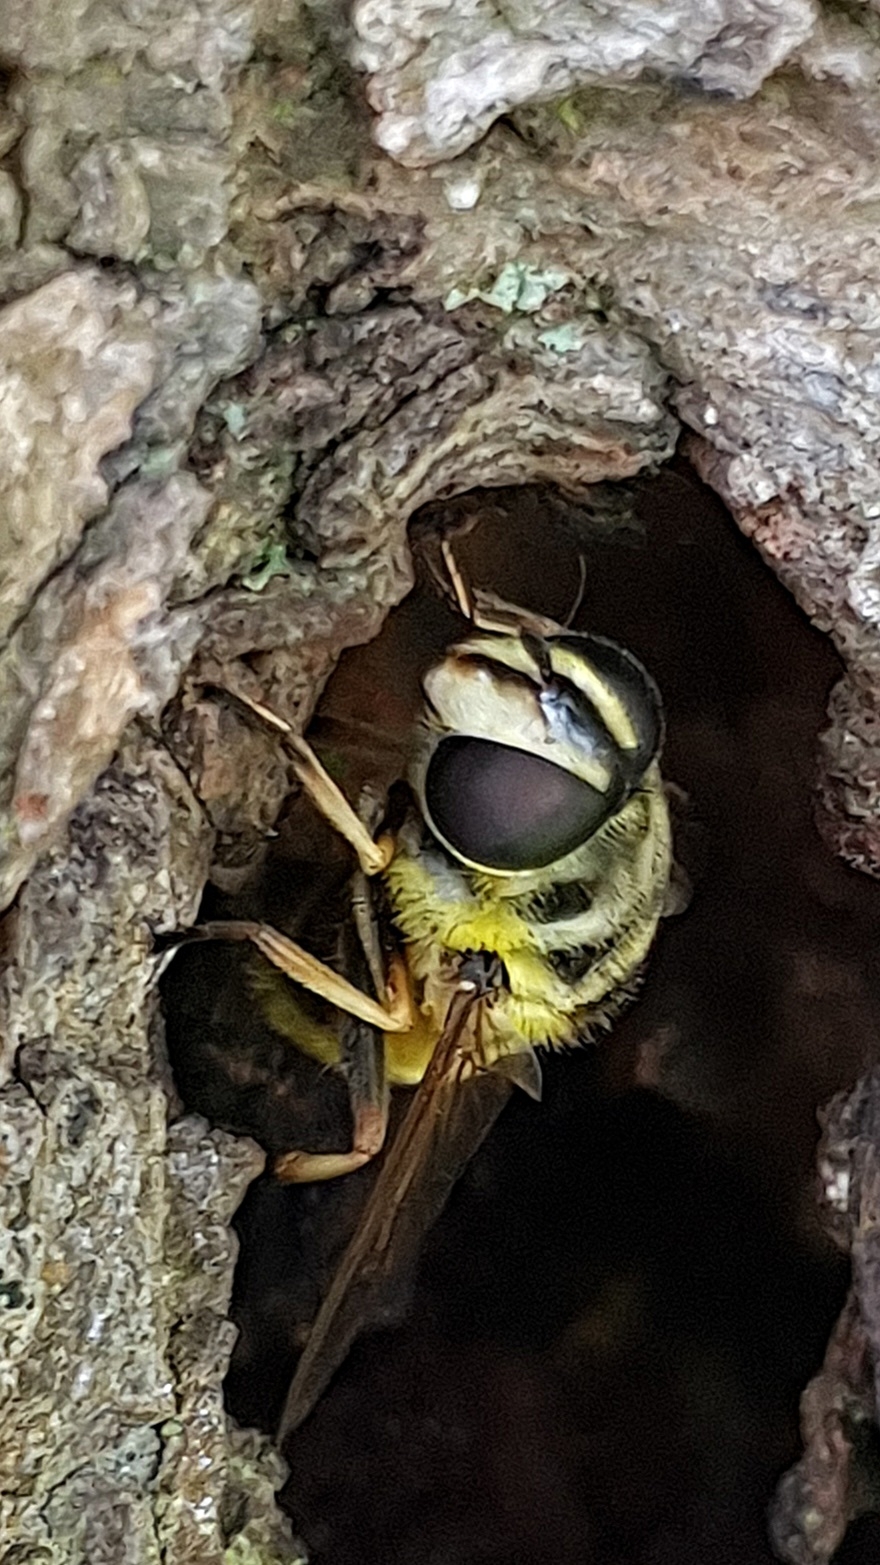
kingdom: Animalia
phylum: Arthropoda
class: Insecta
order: Diptera
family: Syrphidae
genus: Myathropa
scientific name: Myathropa florea
